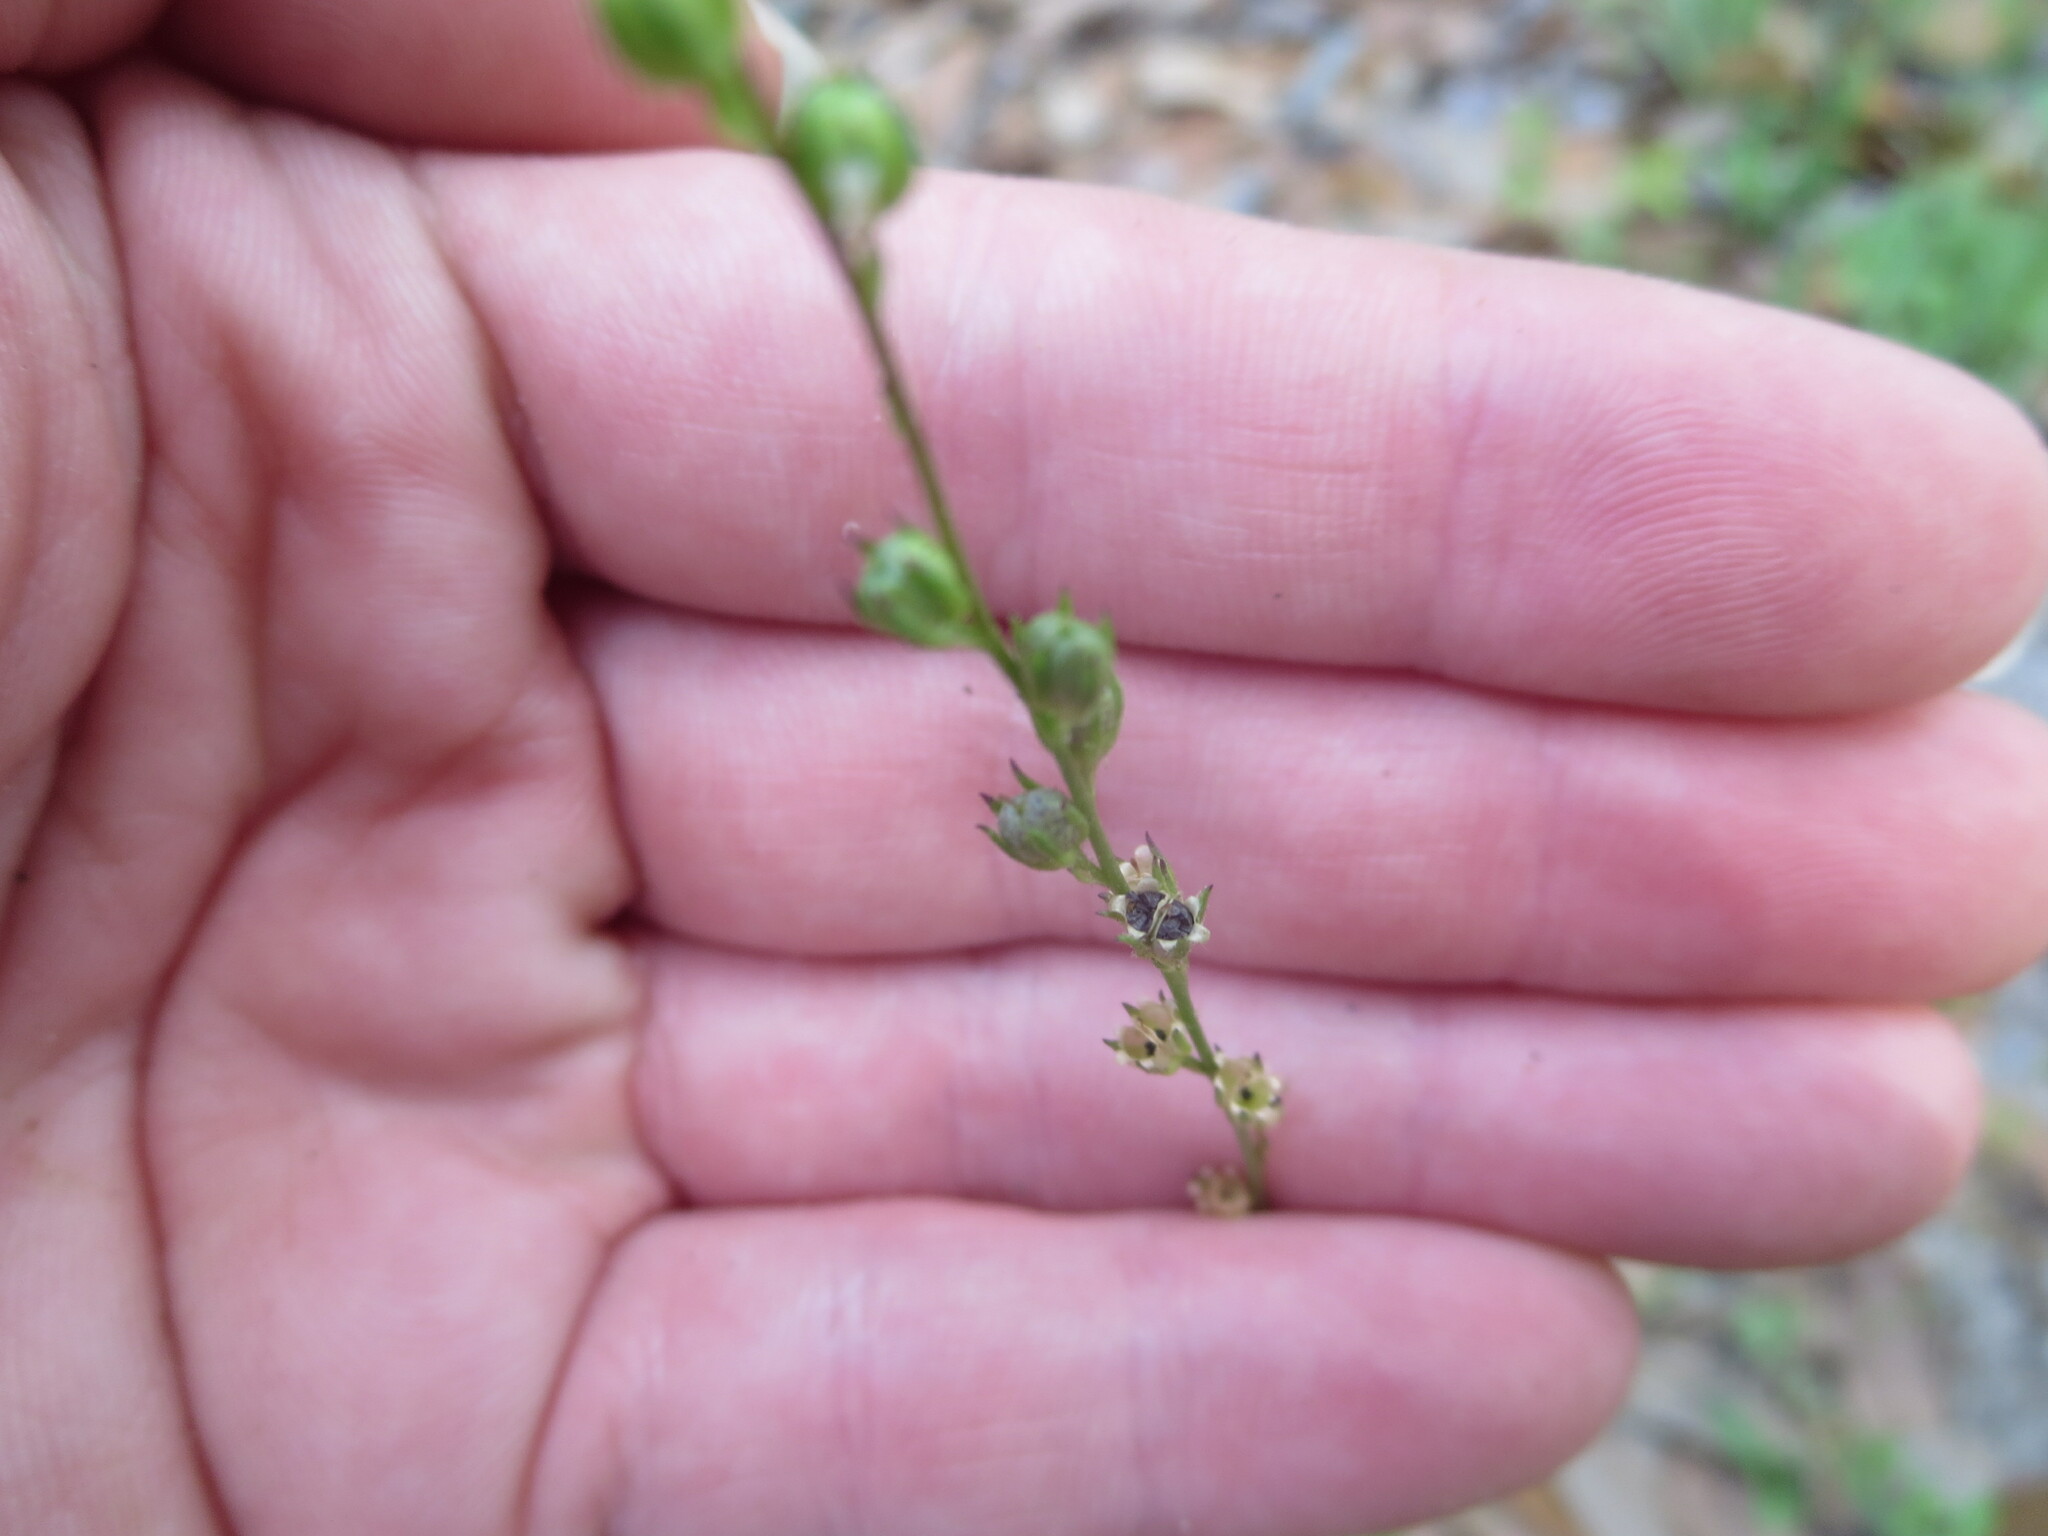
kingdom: Plantae
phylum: Tracheophyta
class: Magnoliopsida
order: Lamiales
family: Plantaginaceae
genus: Nuttallanthus
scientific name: Nuttallanthus canadensis
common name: Blue toadflax
